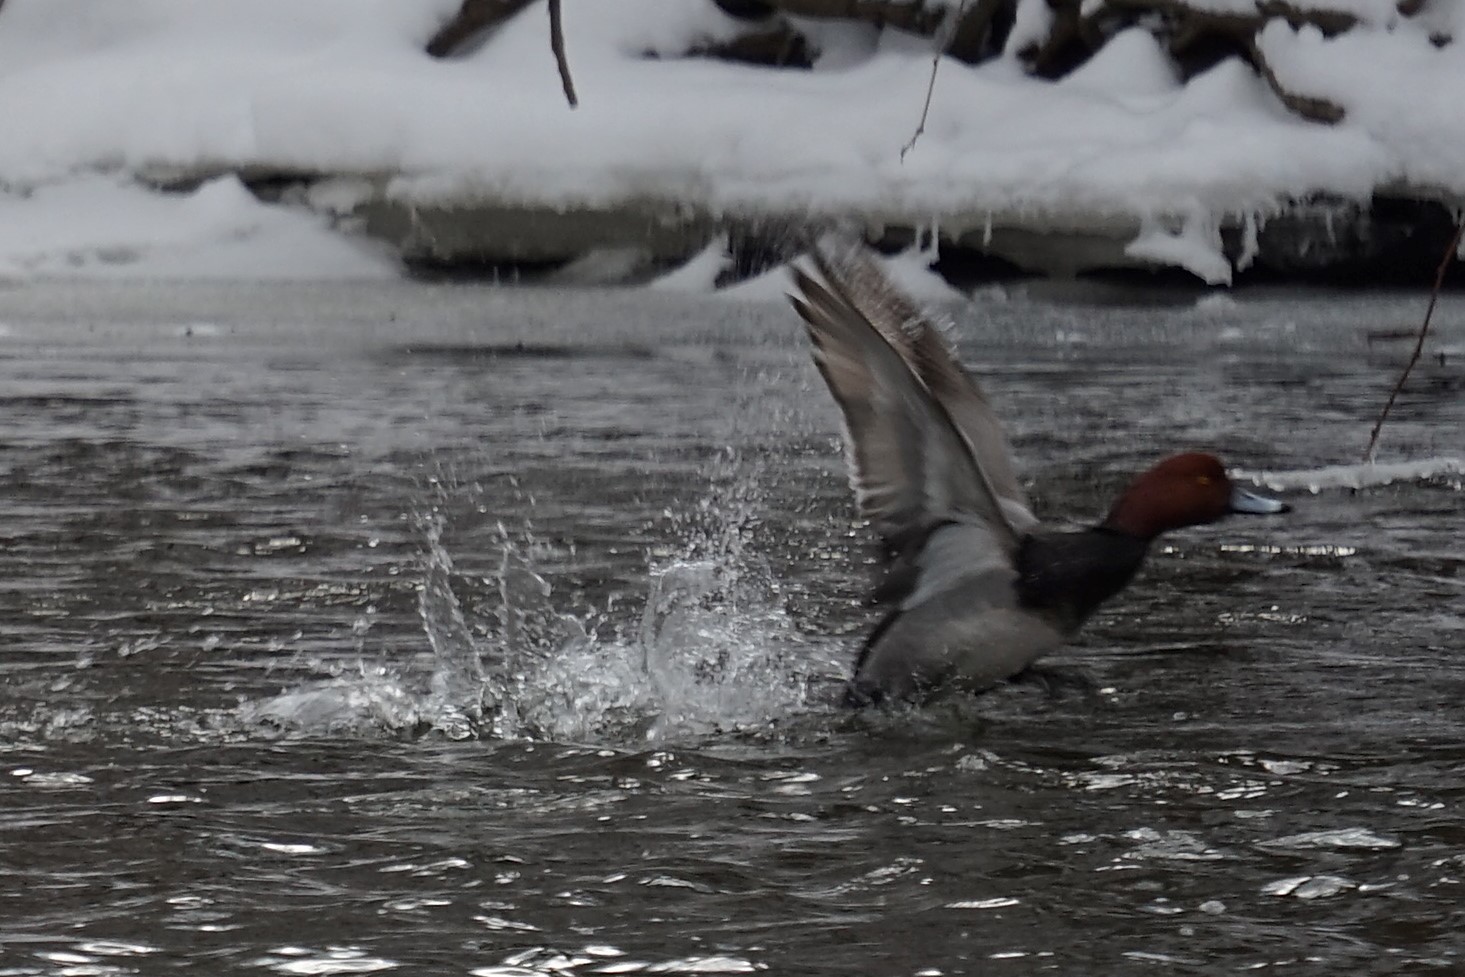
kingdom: Animalia
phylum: Chordata
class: Aves
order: Anseriformes
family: Anatidae
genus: Aythya
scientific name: Aythya americana
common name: Redhead
